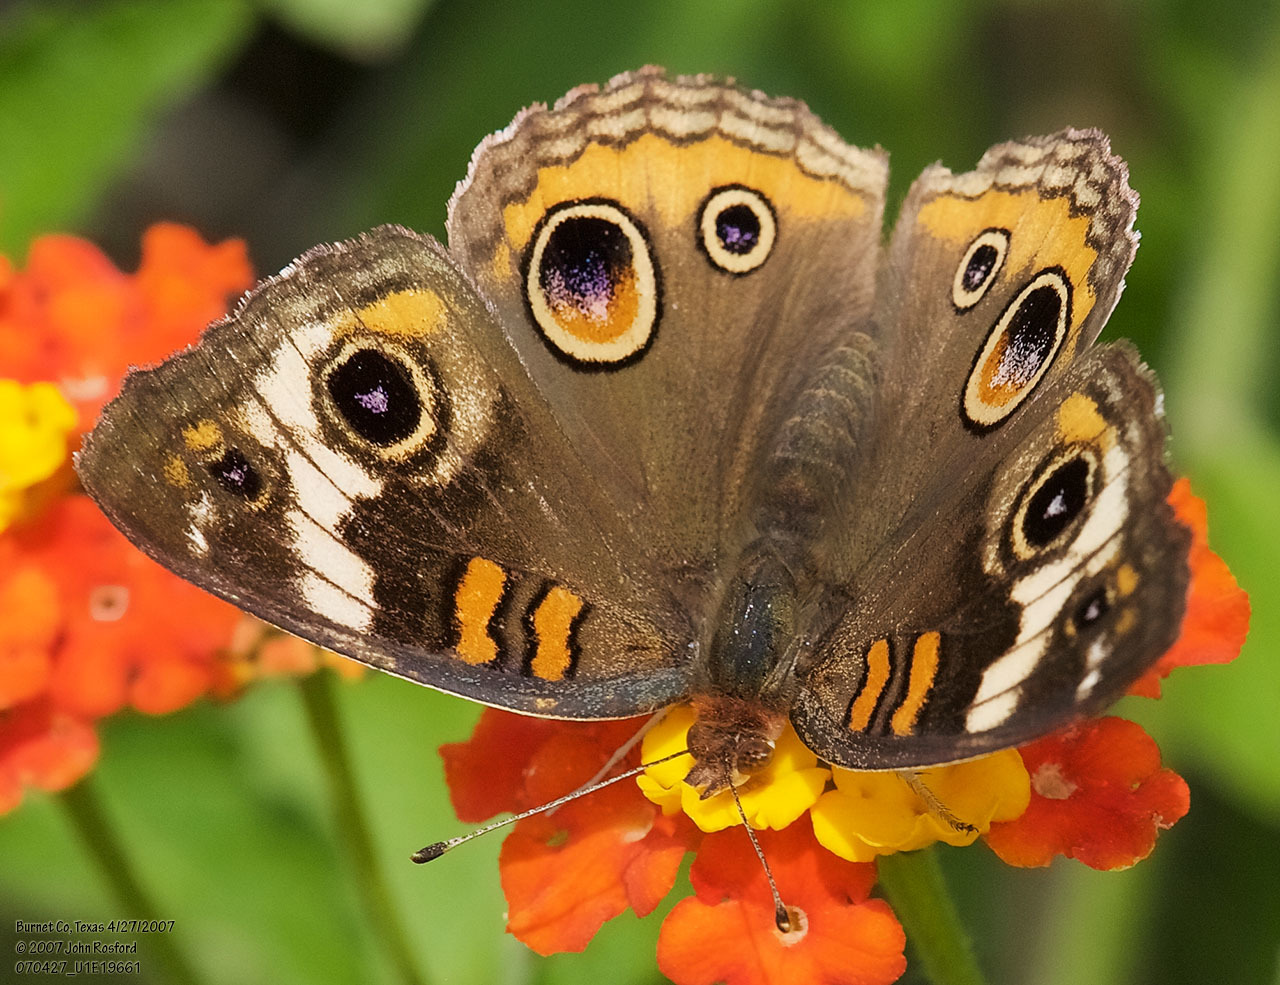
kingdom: Animalia
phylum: Arthropoda
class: Insecta
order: Lepidoptera
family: Nymphalidae
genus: Junonia
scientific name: Junonia coenia
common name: Common buckeye
